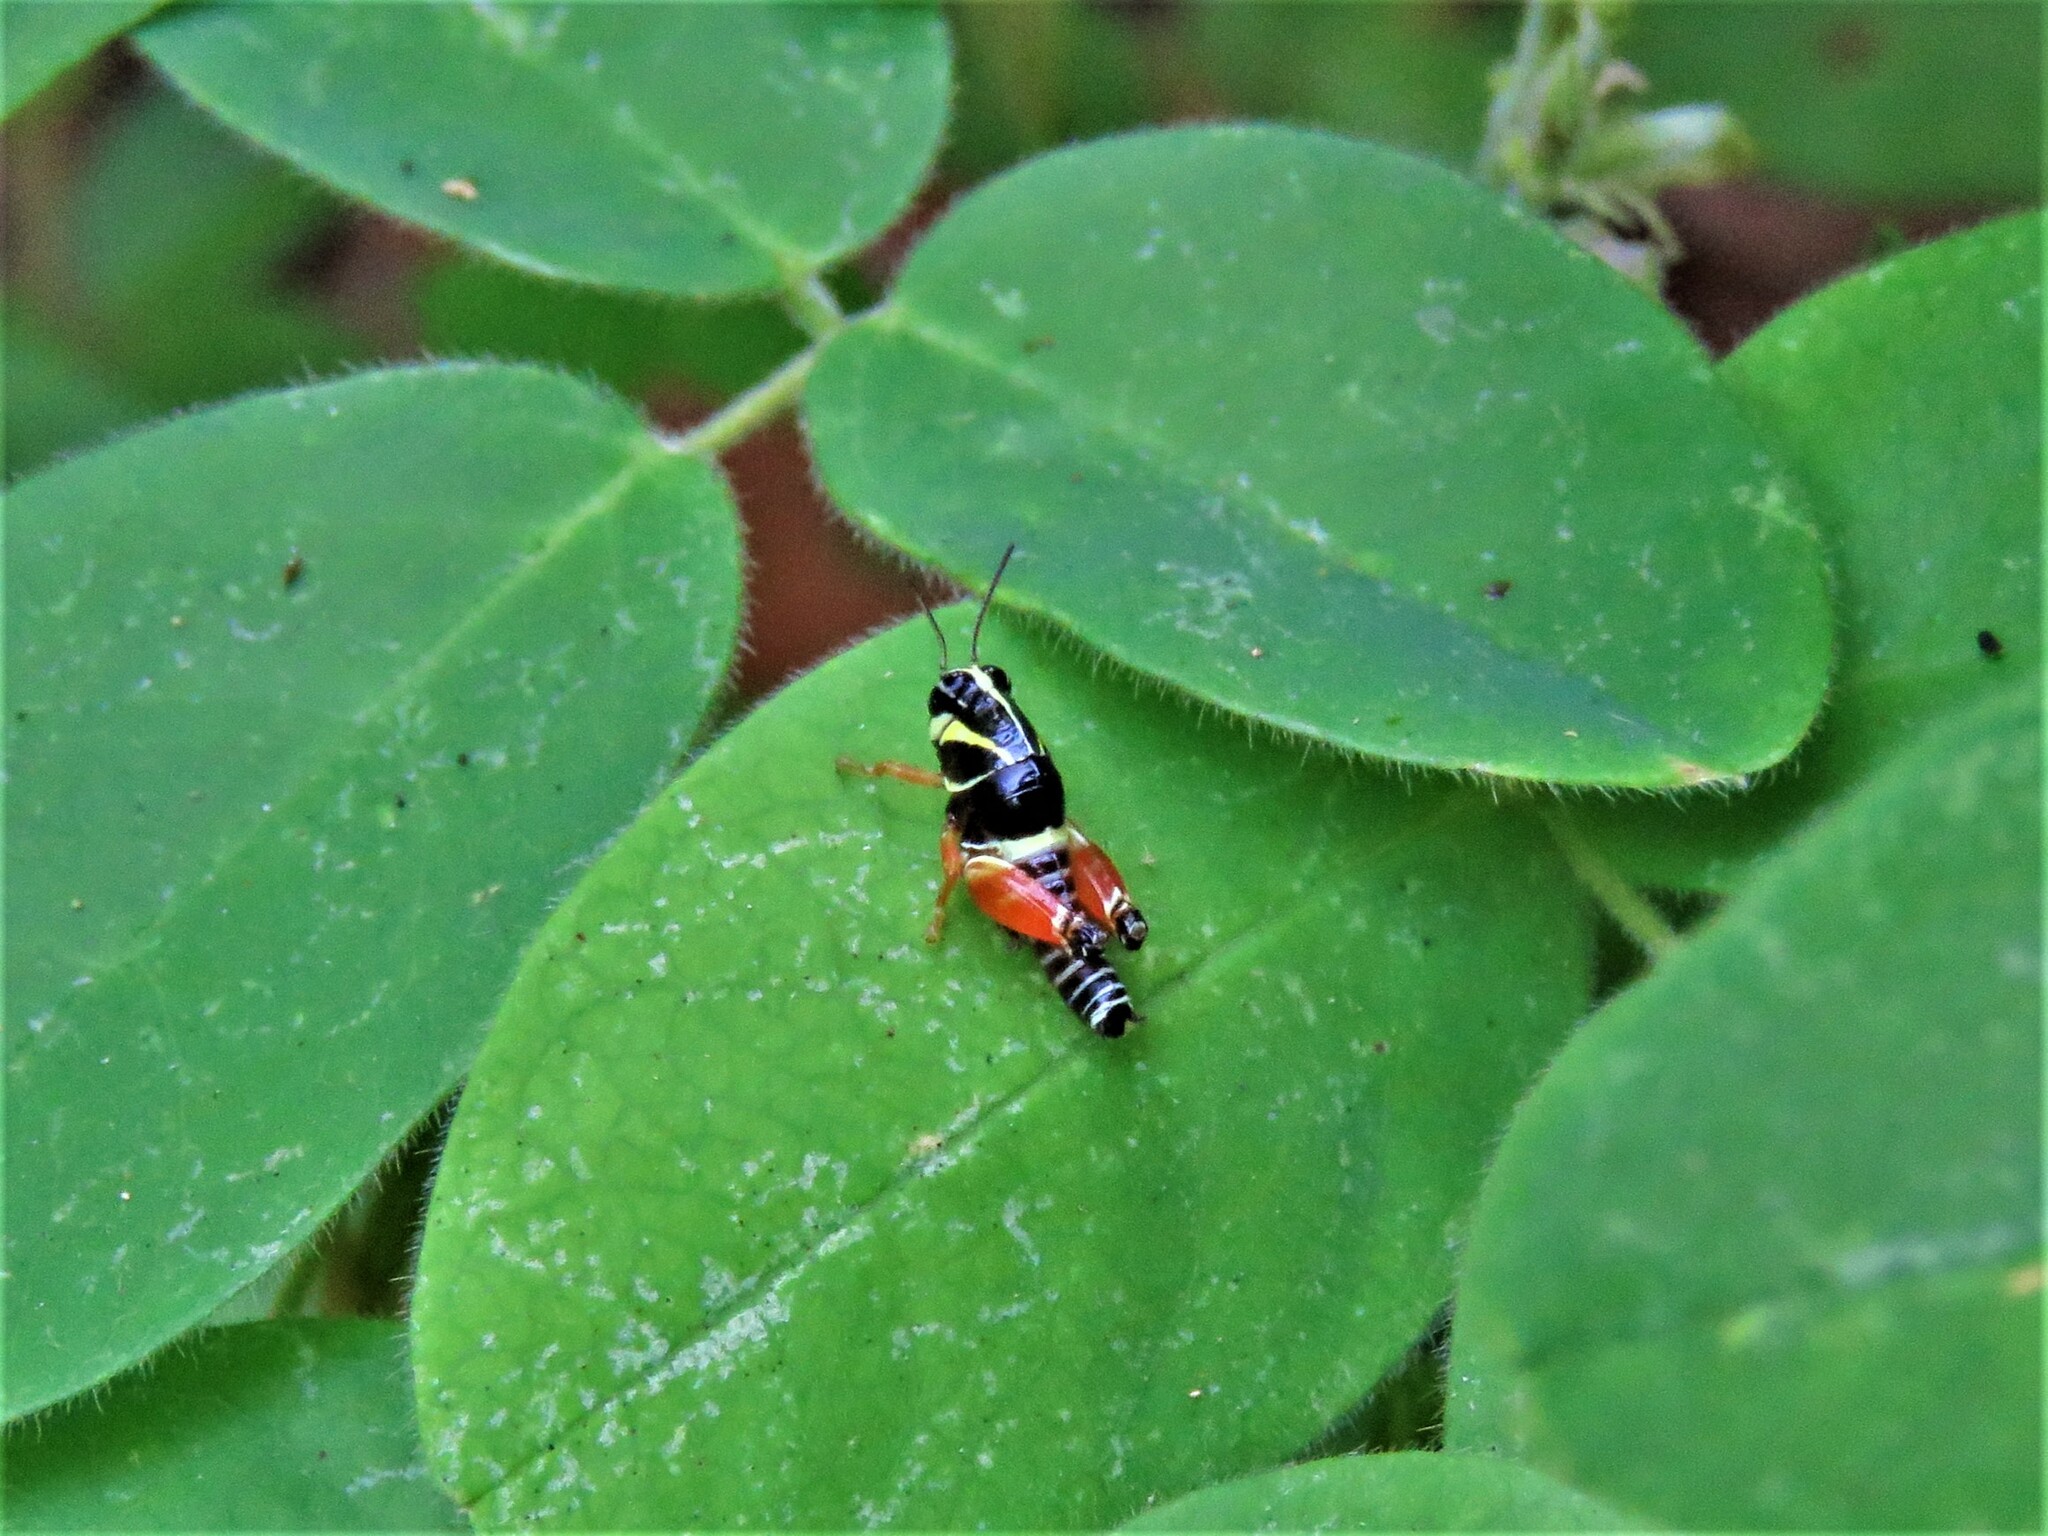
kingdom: Animalia
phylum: Arthropoda
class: Insecta
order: Orthoptera
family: Acrididae
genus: Aidemona
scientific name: Aidemona azteca
